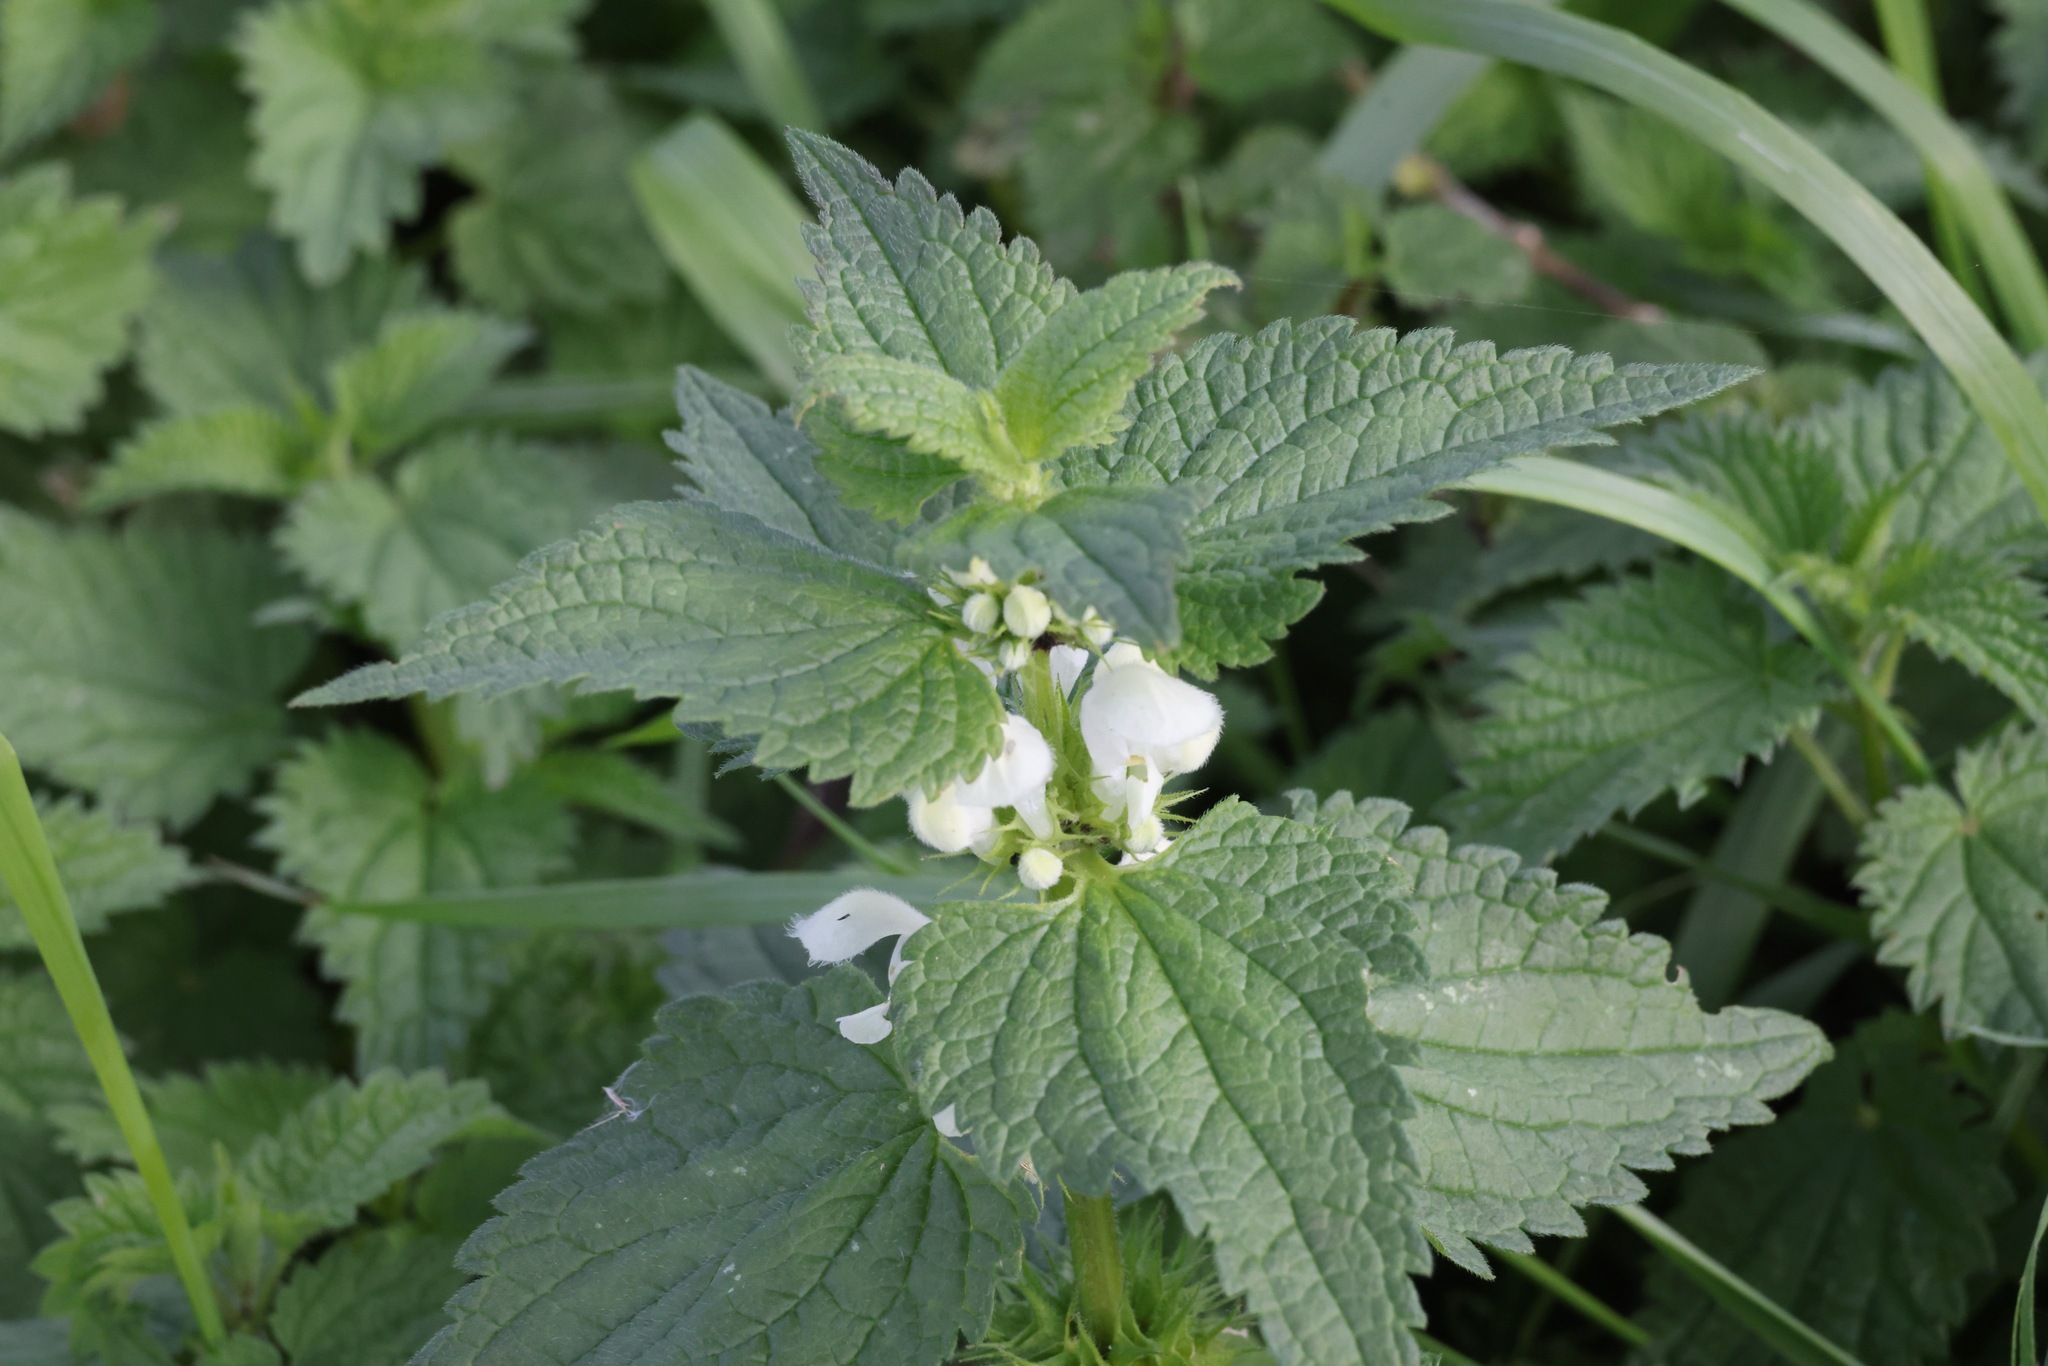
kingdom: Plantae
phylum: Tracheophyta
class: Magnoliopsida
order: Lamiales
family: Lamiaceae
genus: Lamium
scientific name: Lamium album
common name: White dead-nettle
